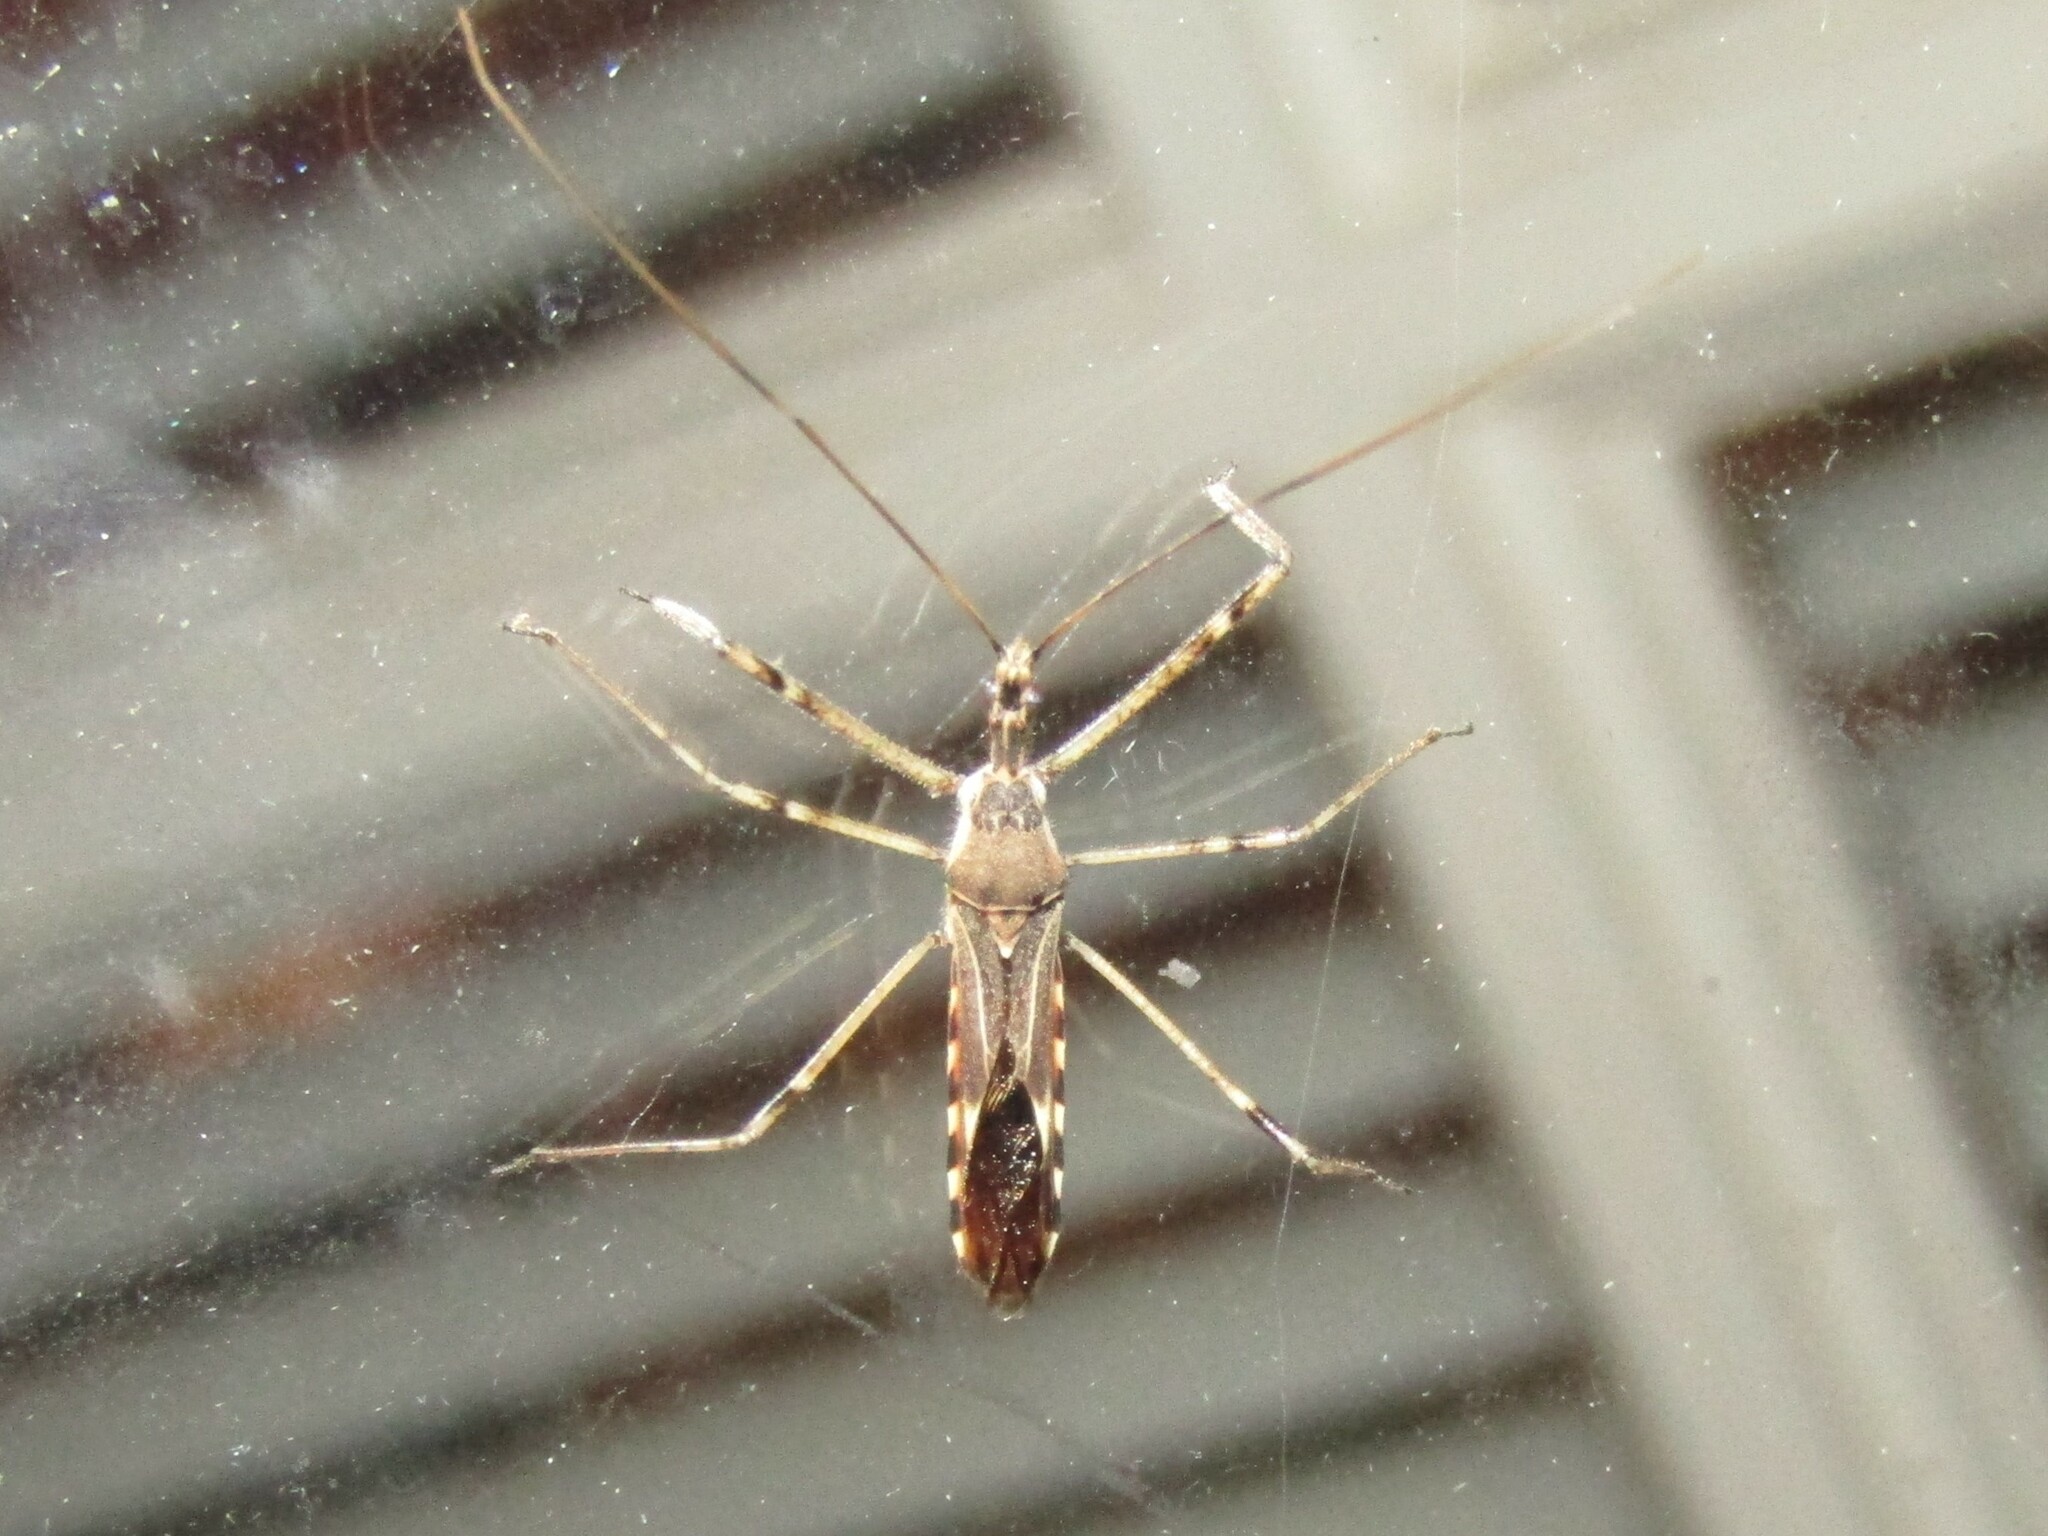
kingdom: Animalia
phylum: Arthropoda
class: Insecta
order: Hemiptera
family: Reduviidae
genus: Zelus
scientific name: Zelus tetracanthus
